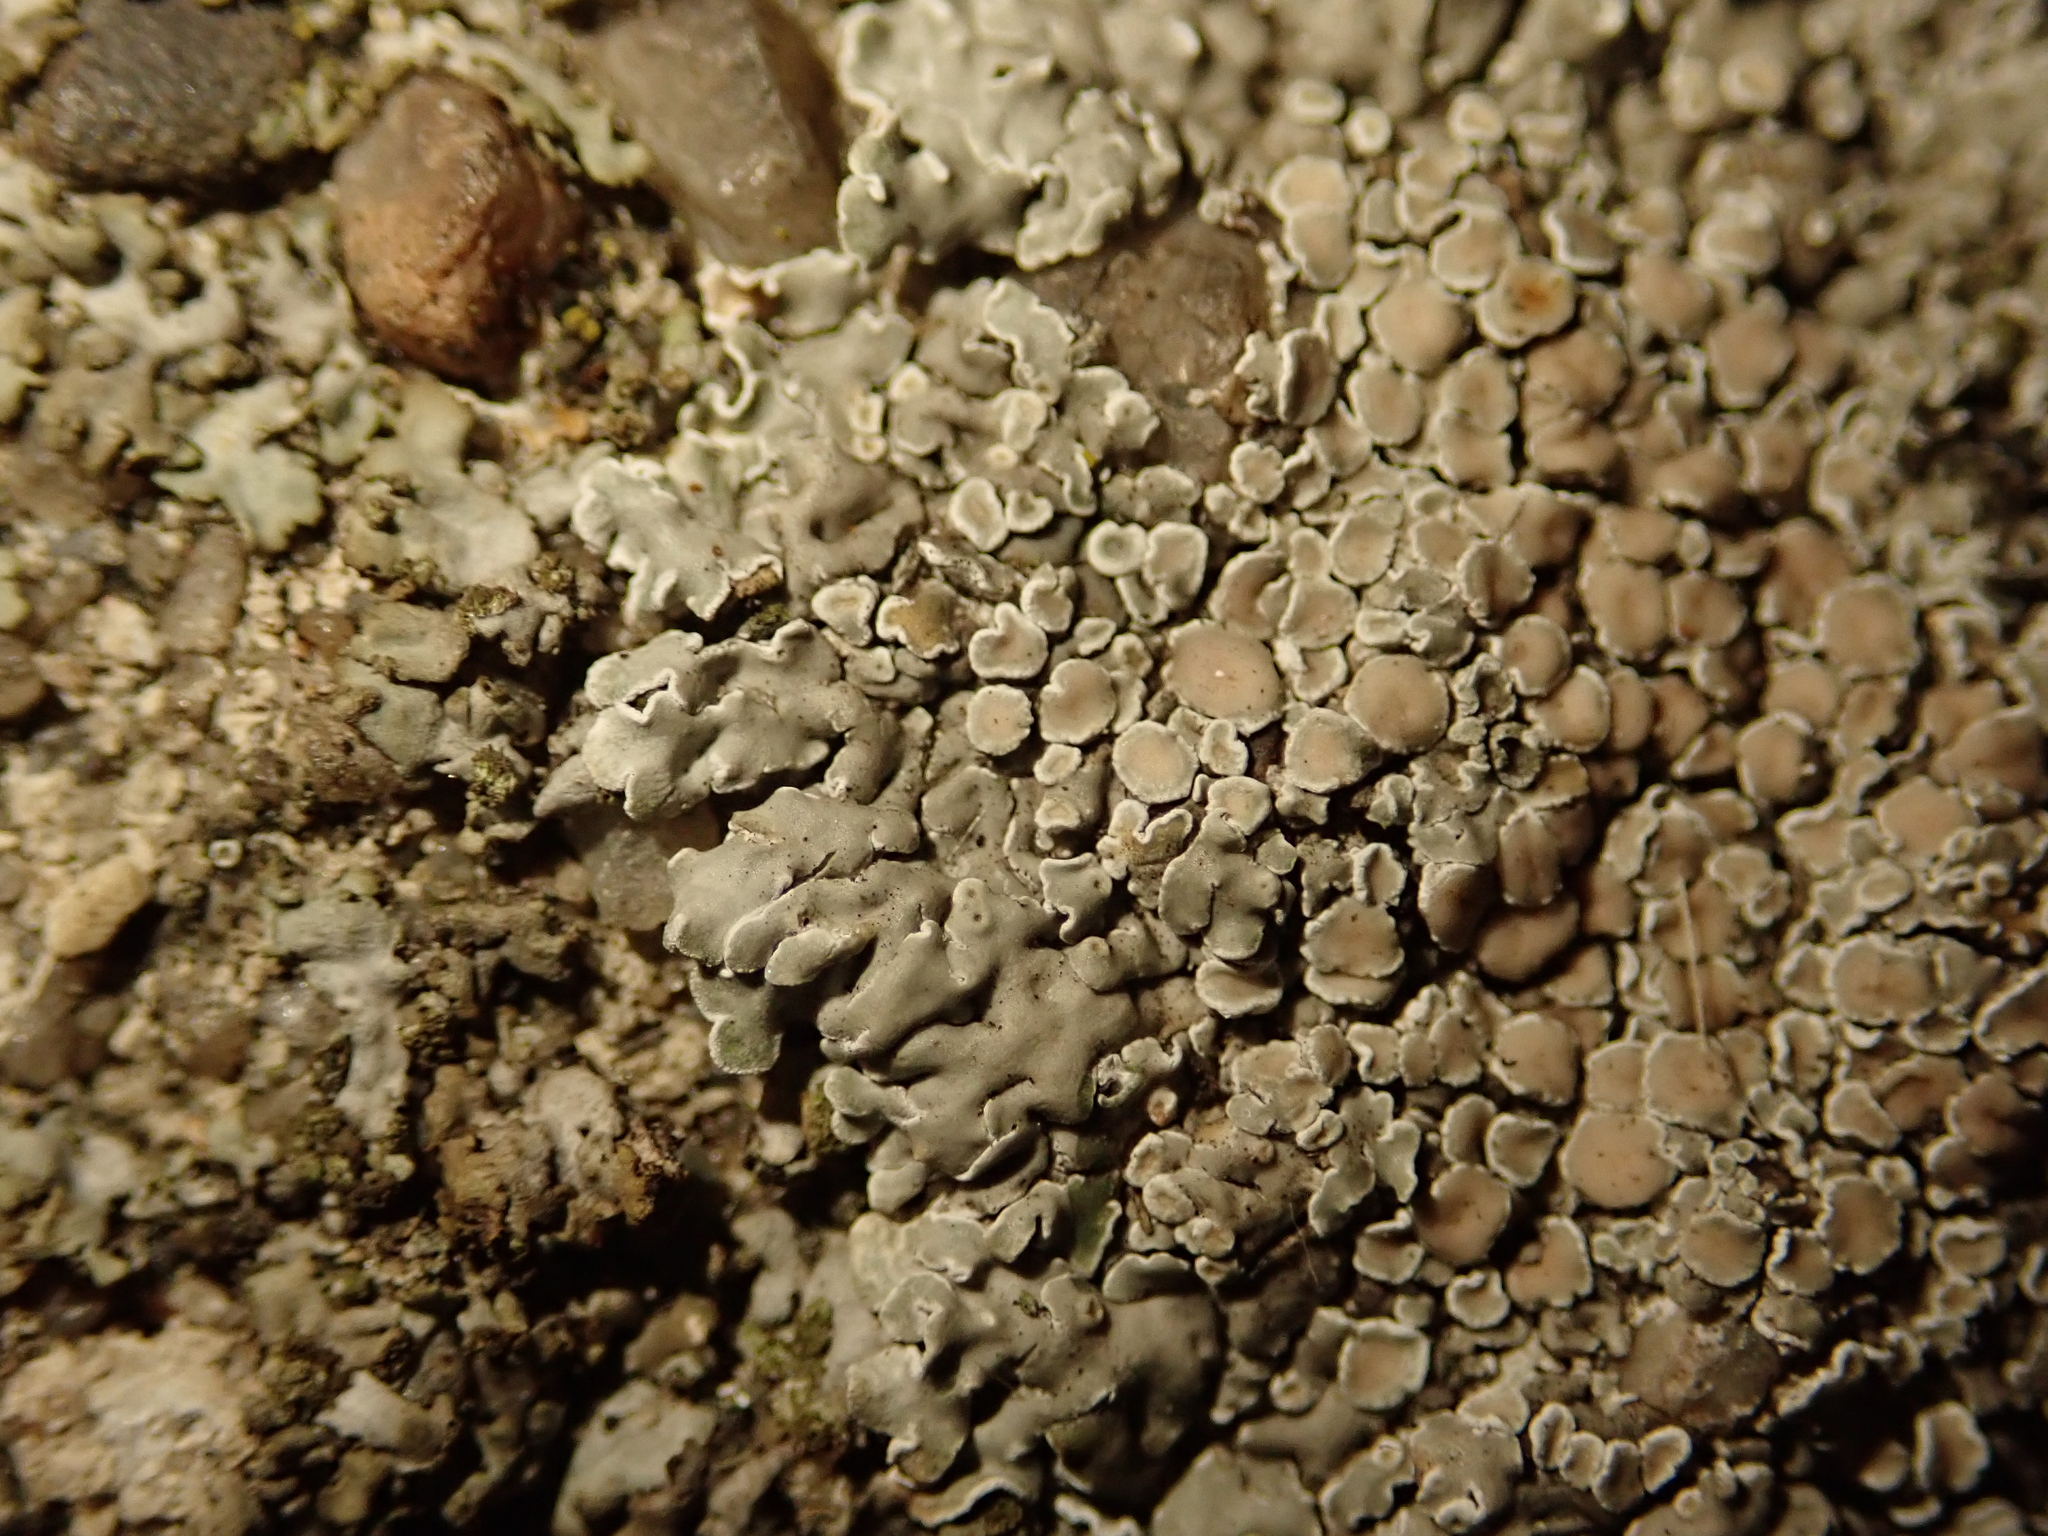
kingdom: Fungi
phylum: Ascomycota
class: Lecanoromycetes
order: Lecanorales
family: Lecanoraceae
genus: Protoparmeliopsis
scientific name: Protoparmeliopsis muralis
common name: Stonewall rim lichen
